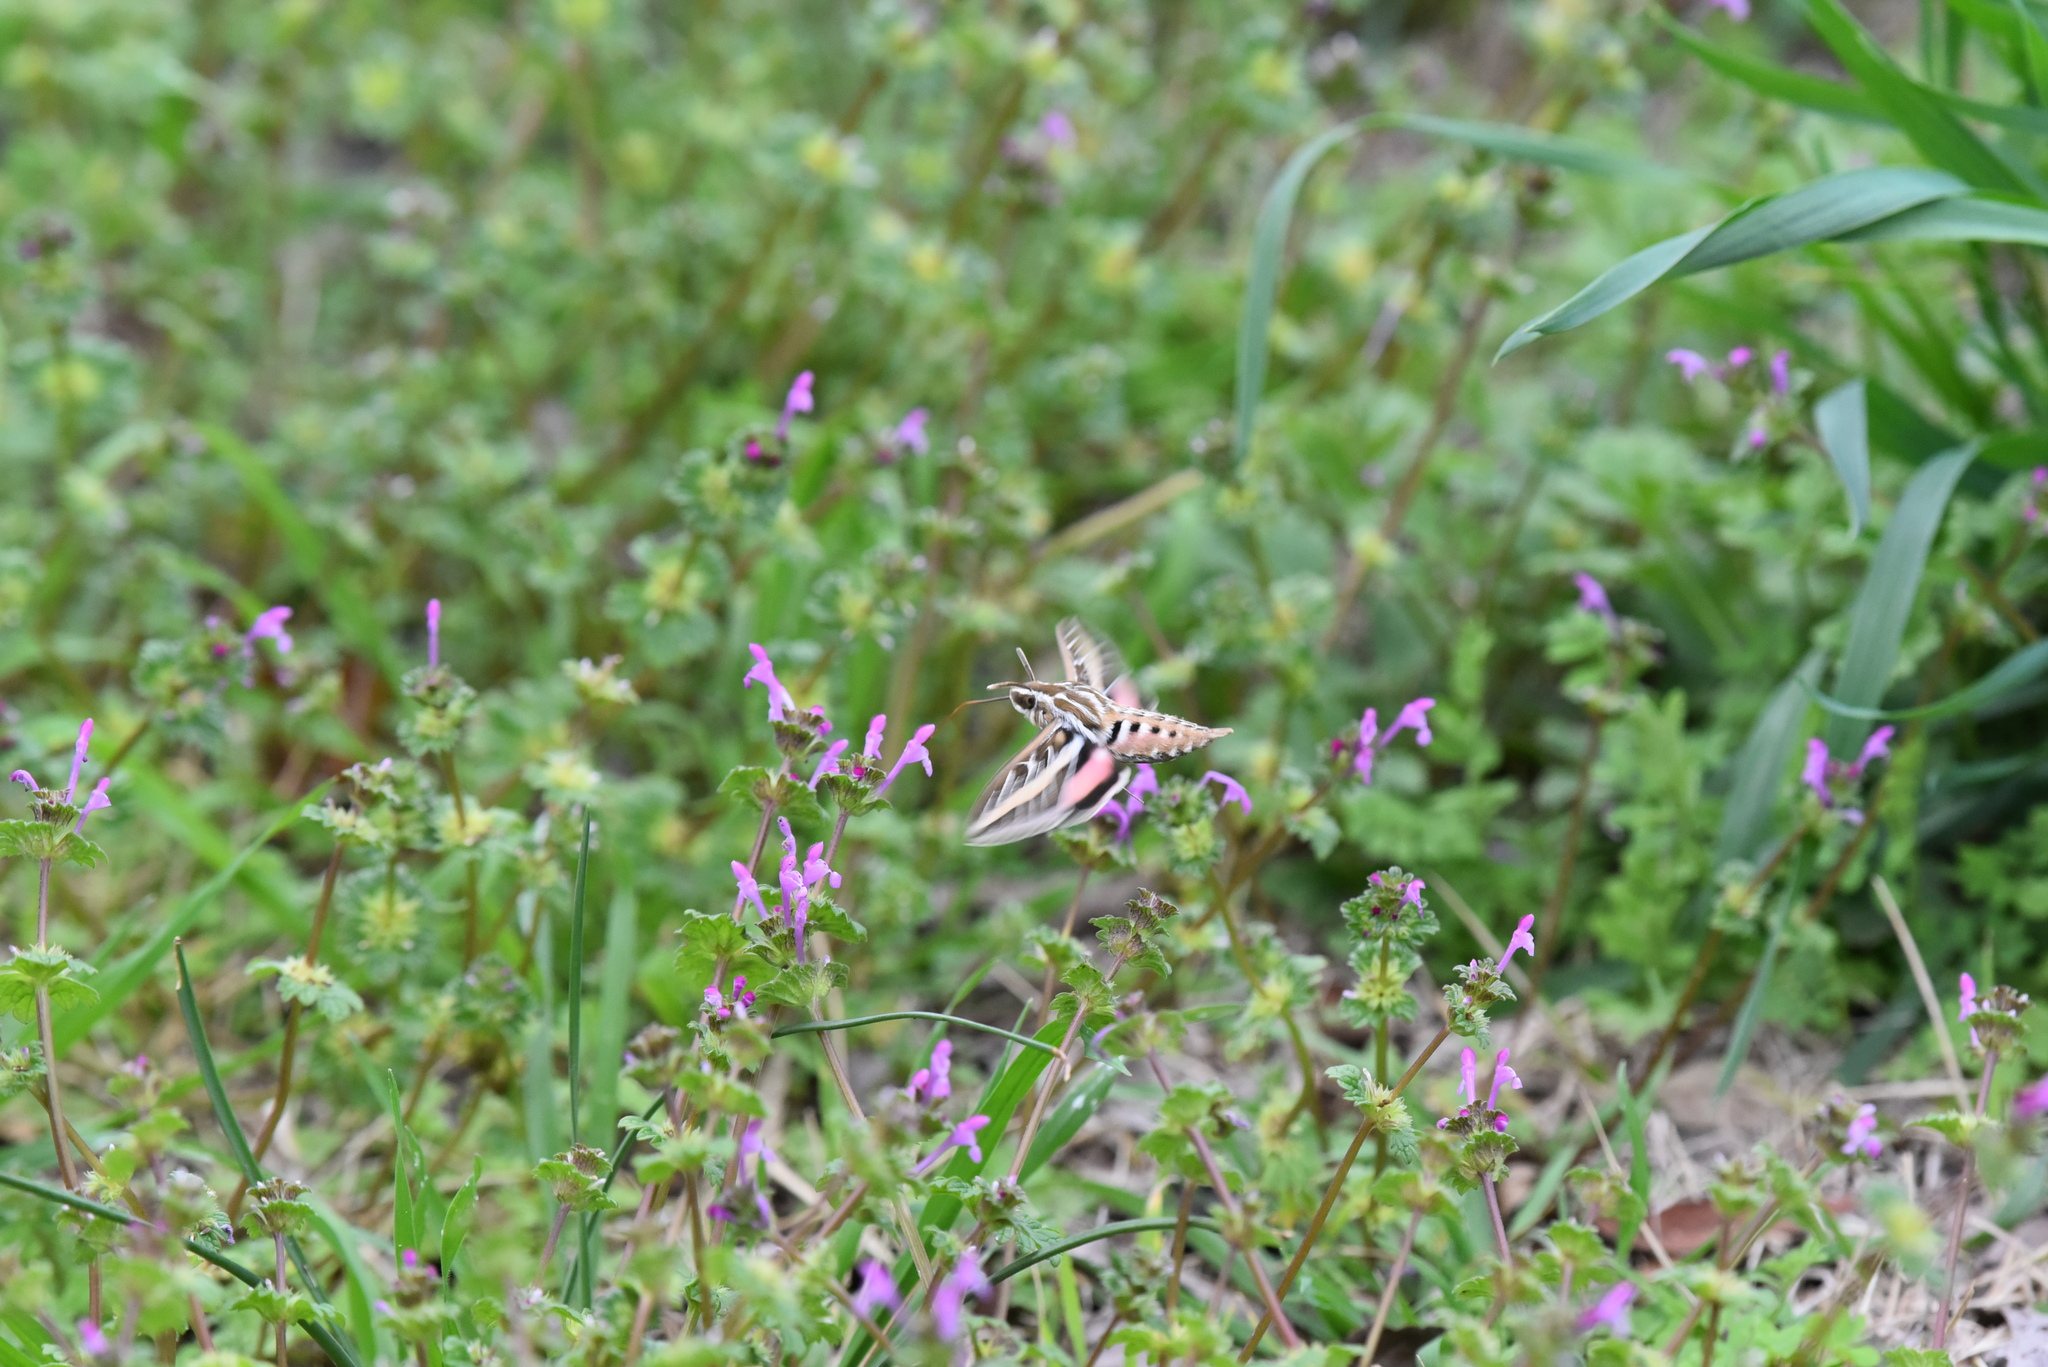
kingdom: Animalia
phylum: Arthropoda
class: Insecta
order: Lepidoptera
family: Sphingidae
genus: Hyles
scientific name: Hyles lineata
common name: White-lined sphinx
